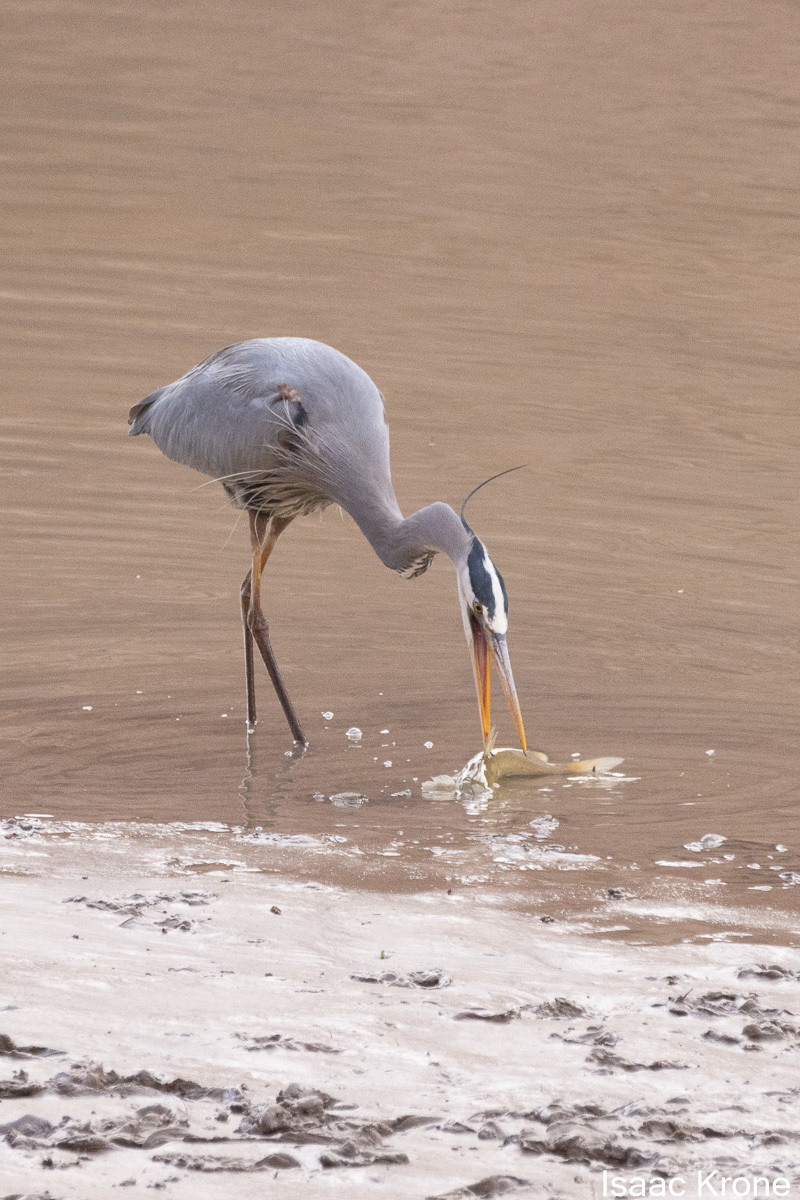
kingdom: Animalia
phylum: Chordata
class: Aves
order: Pelecaniformes
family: Ardeidae
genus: Ardea
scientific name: Ardea herodias
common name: Great blue heron
